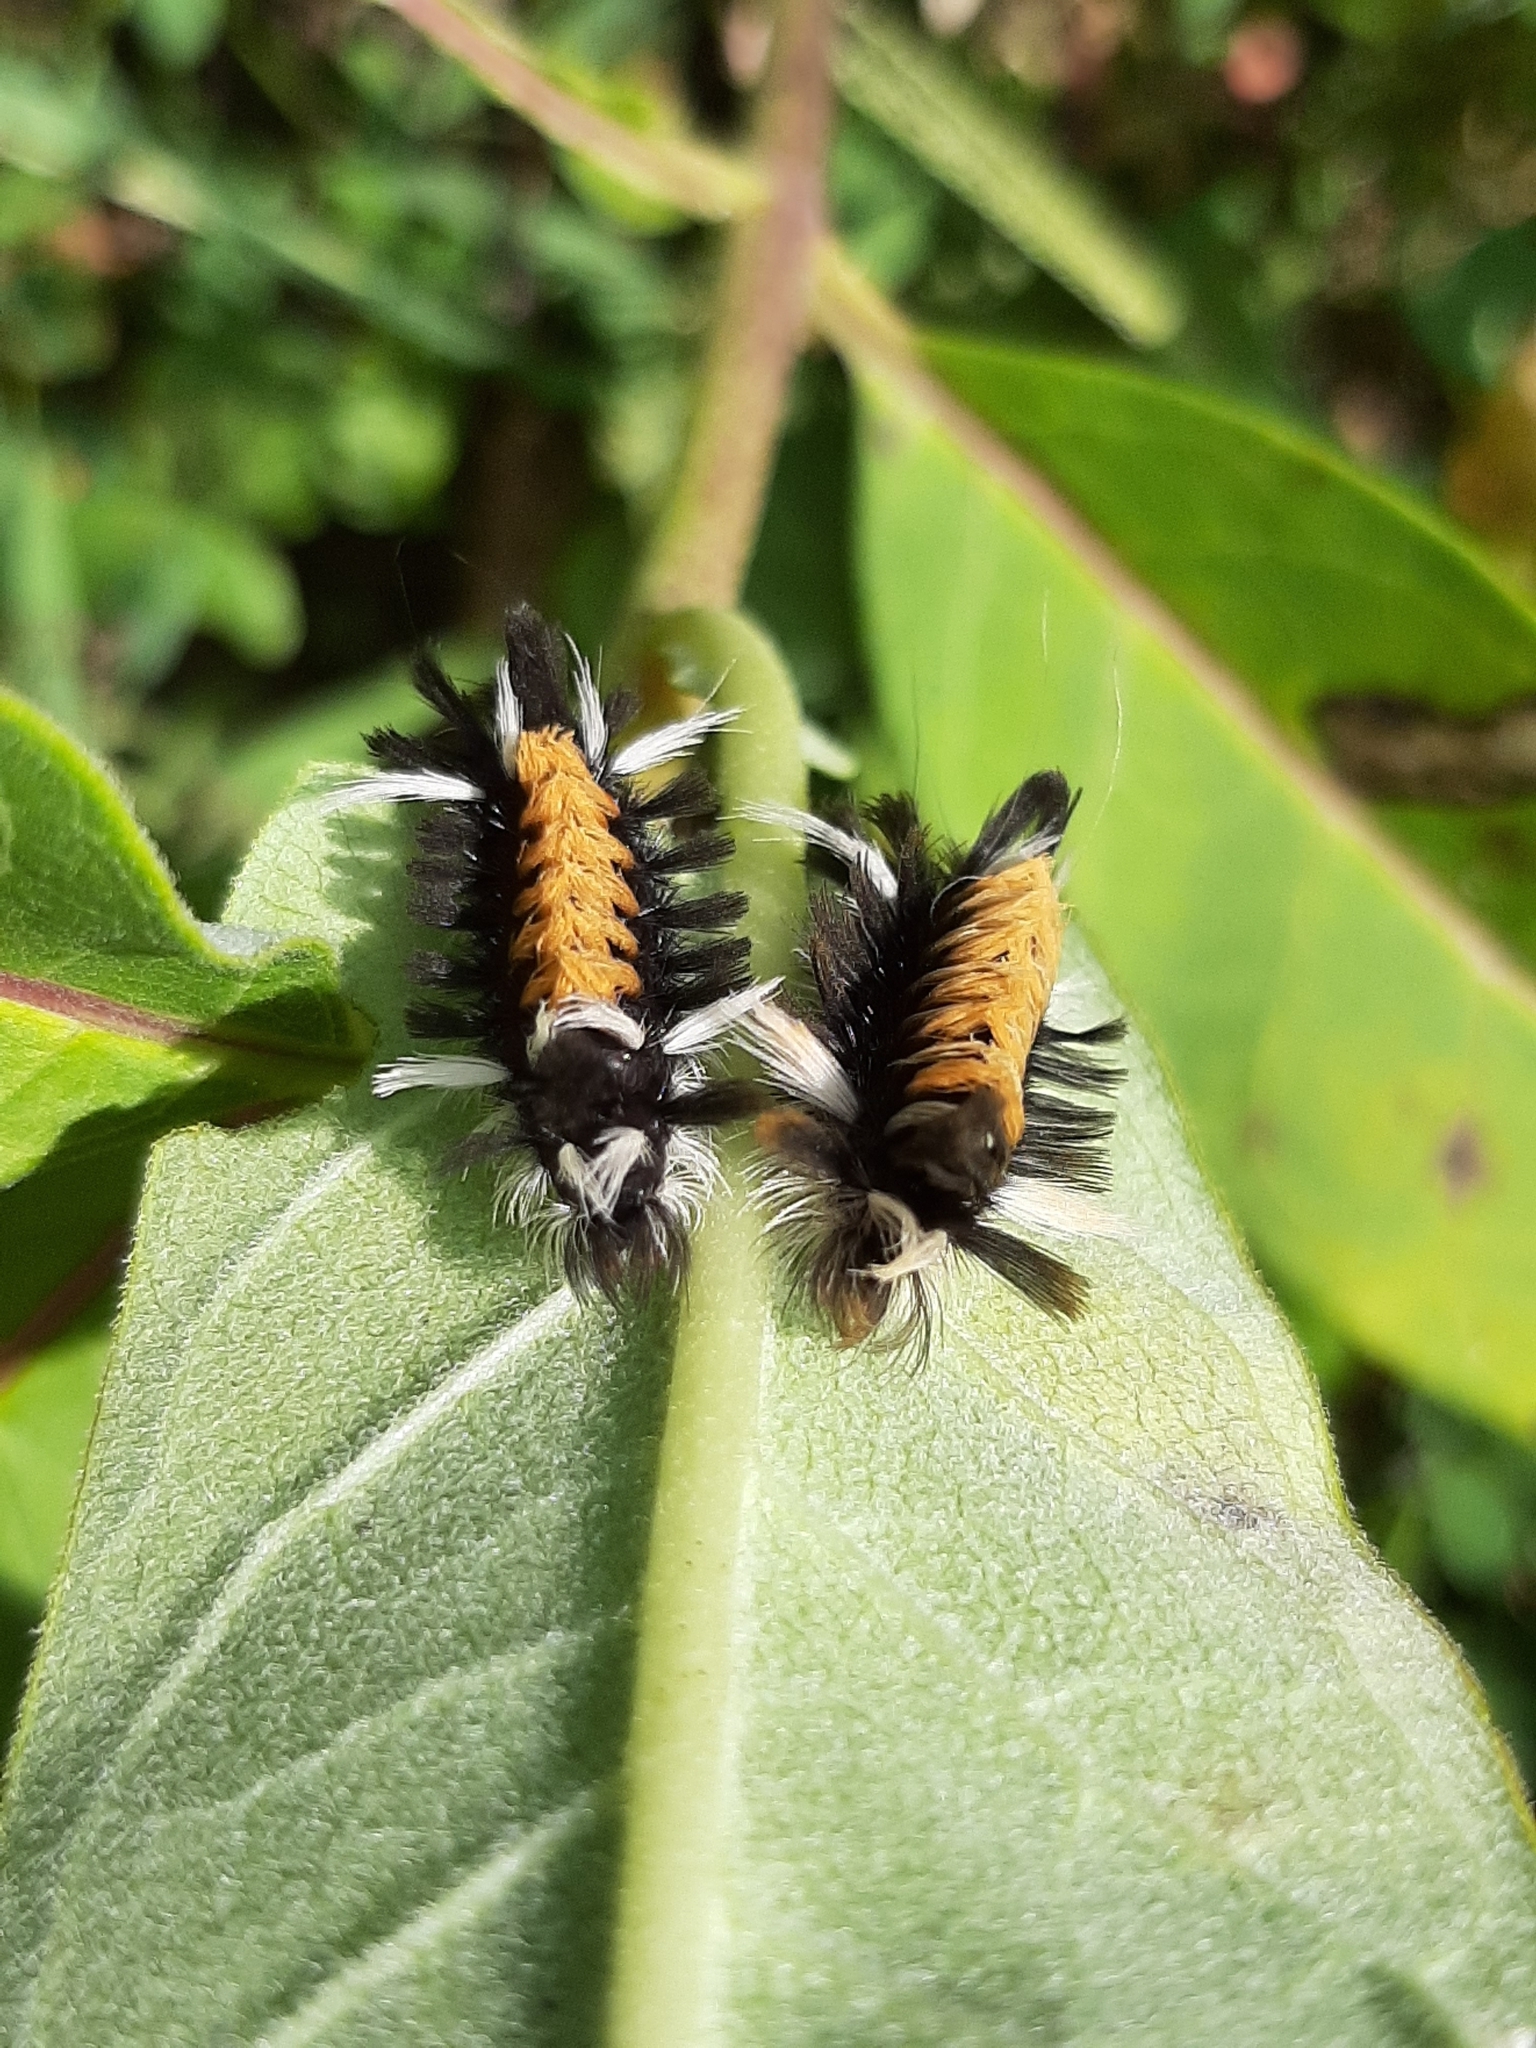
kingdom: Animalia
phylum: Arthropoda
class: Insecta
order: Lepidoptera
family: Erebidae
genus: Euchaetes
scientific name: Euchaetes egle
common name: Milkweed tussock moth
